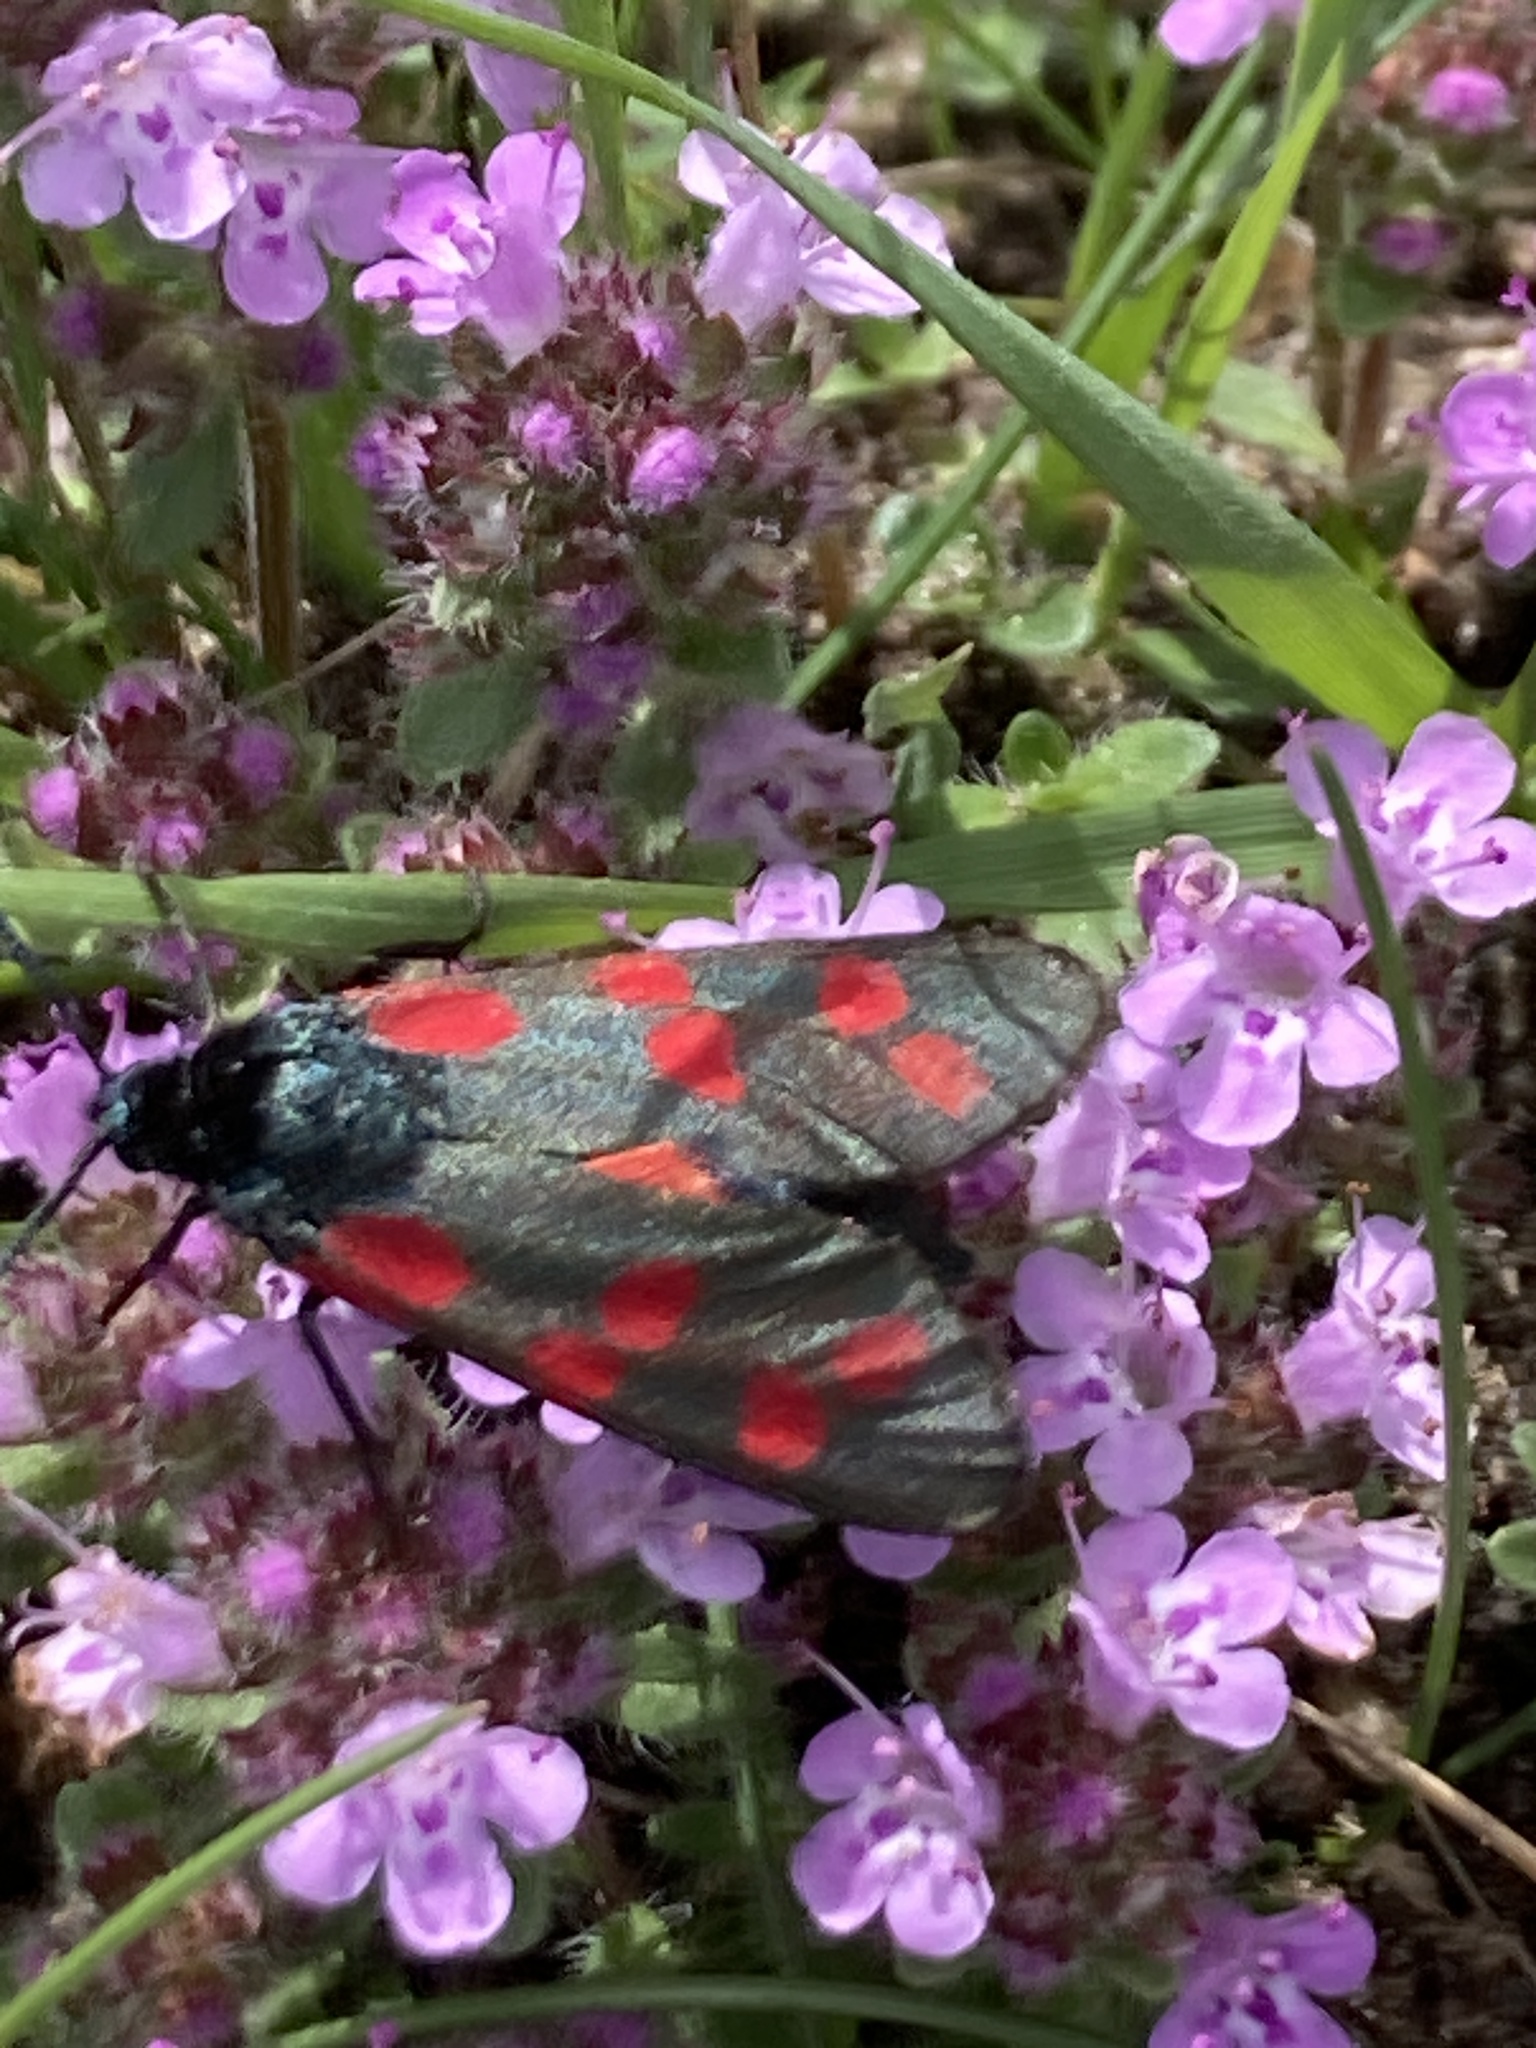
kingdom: Animalia
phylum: Arthropoda
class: Insecta
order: Lepidoptera
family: Zygaenidae
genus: Zygaena
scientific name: Zygaena filipendulae
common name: Six-spot burnet
